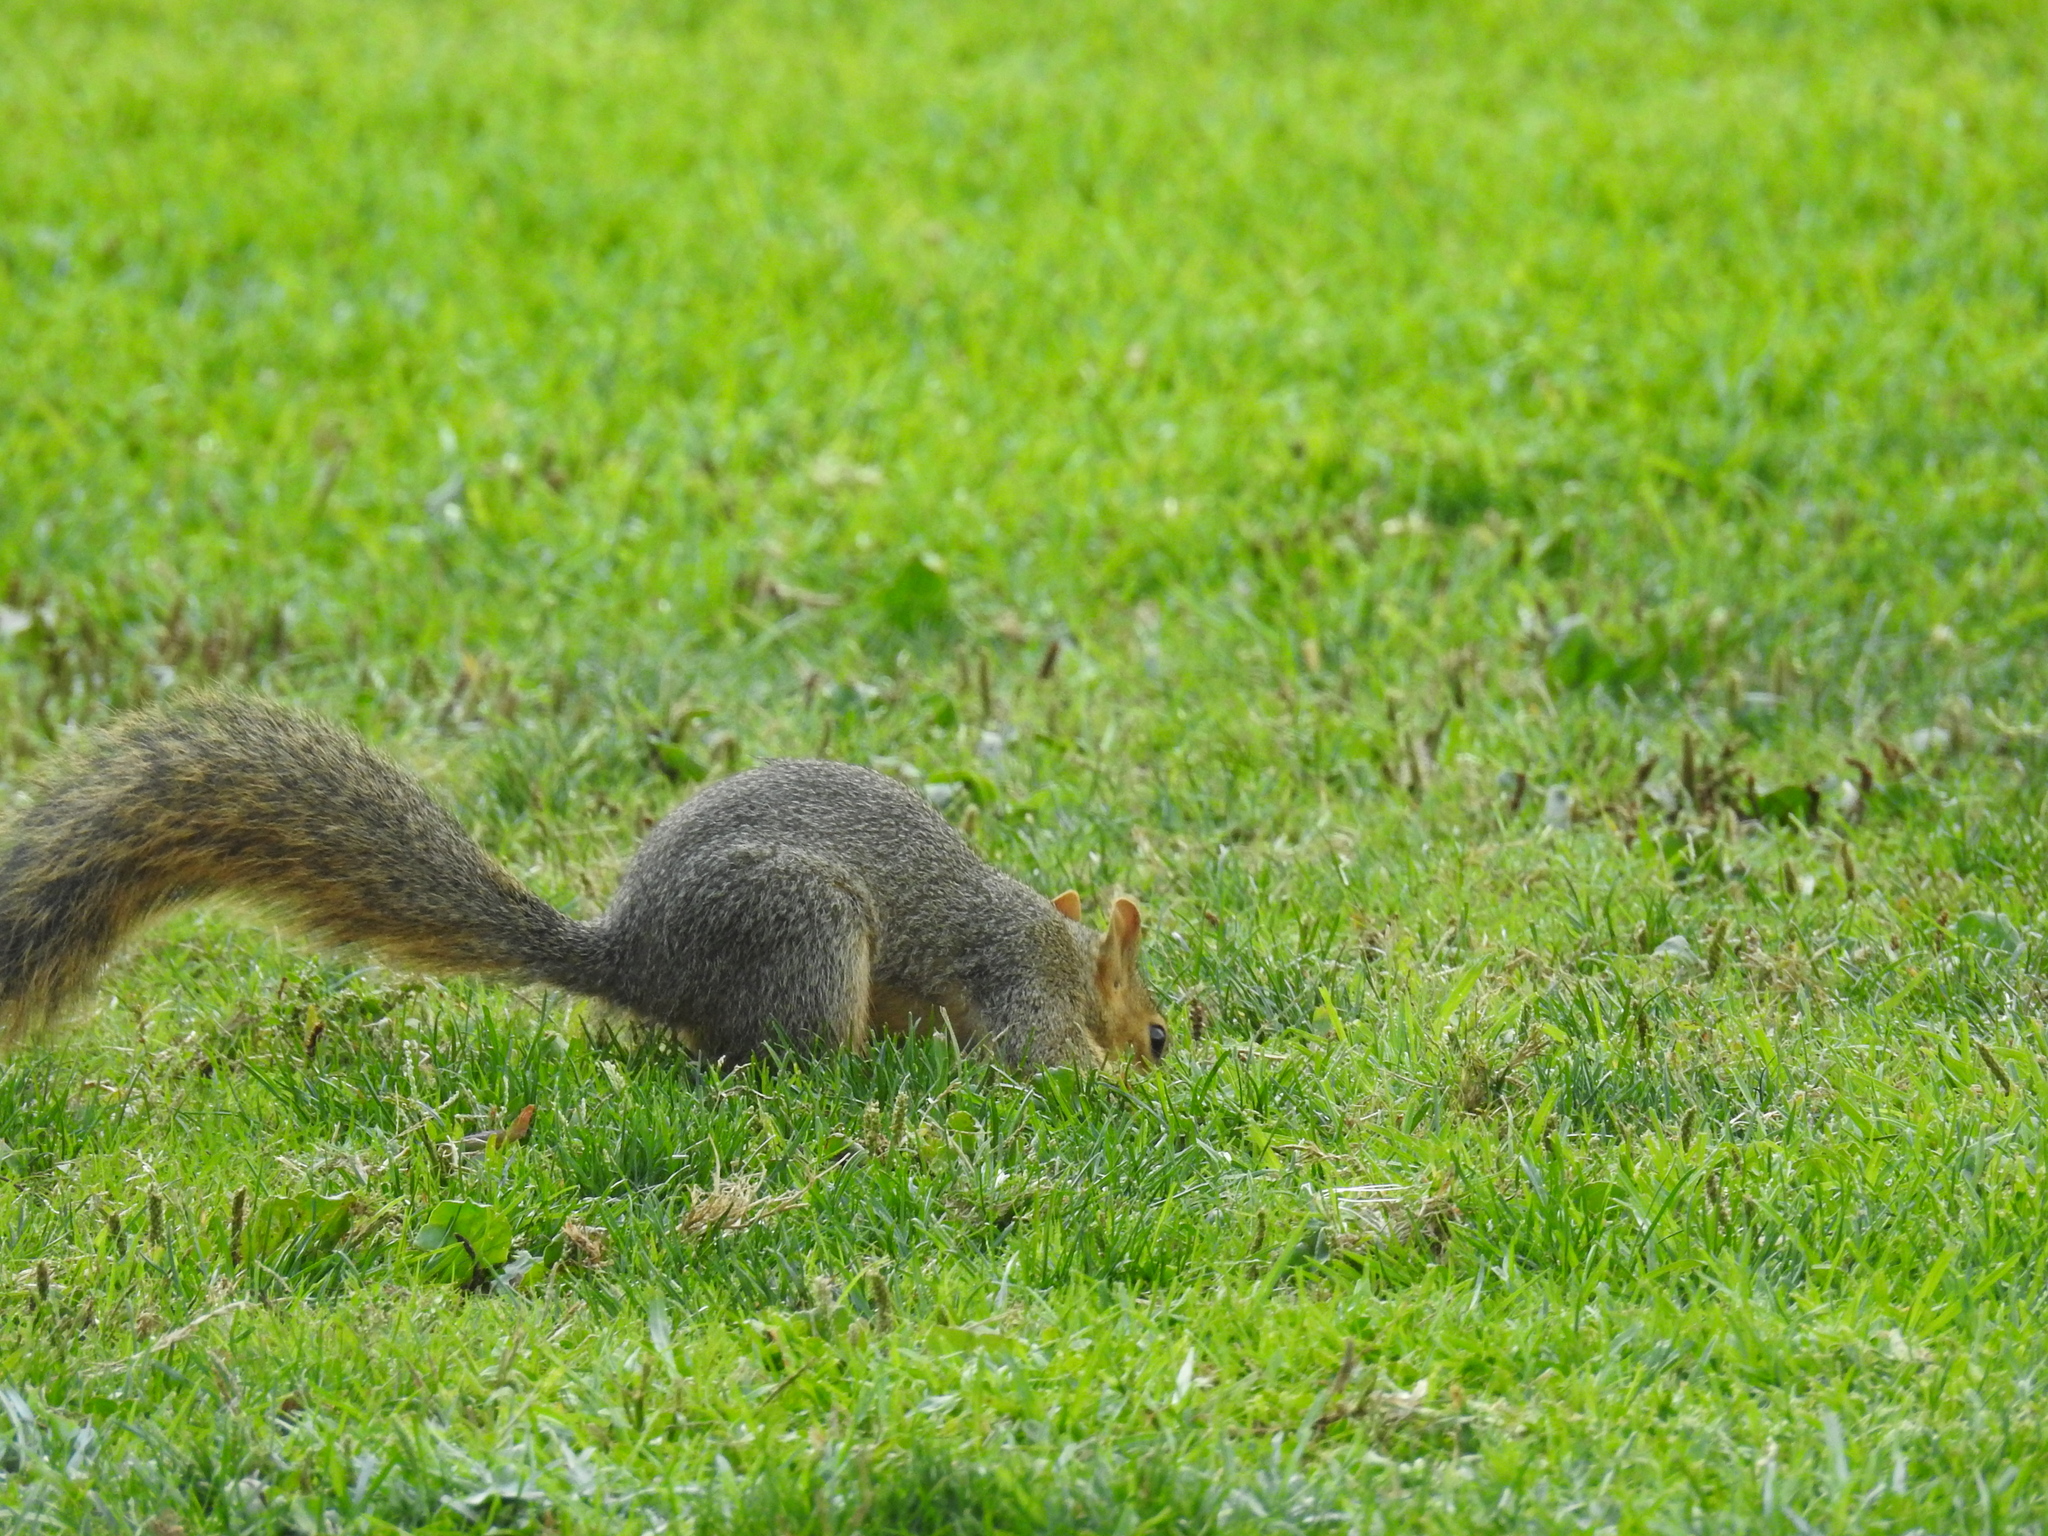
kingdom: Animalia
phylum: Chordata
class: Mammalia
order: Rodentia
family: Sciuridae
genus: Sciurus
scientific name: Sciurus niger
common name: Fox squirrel
